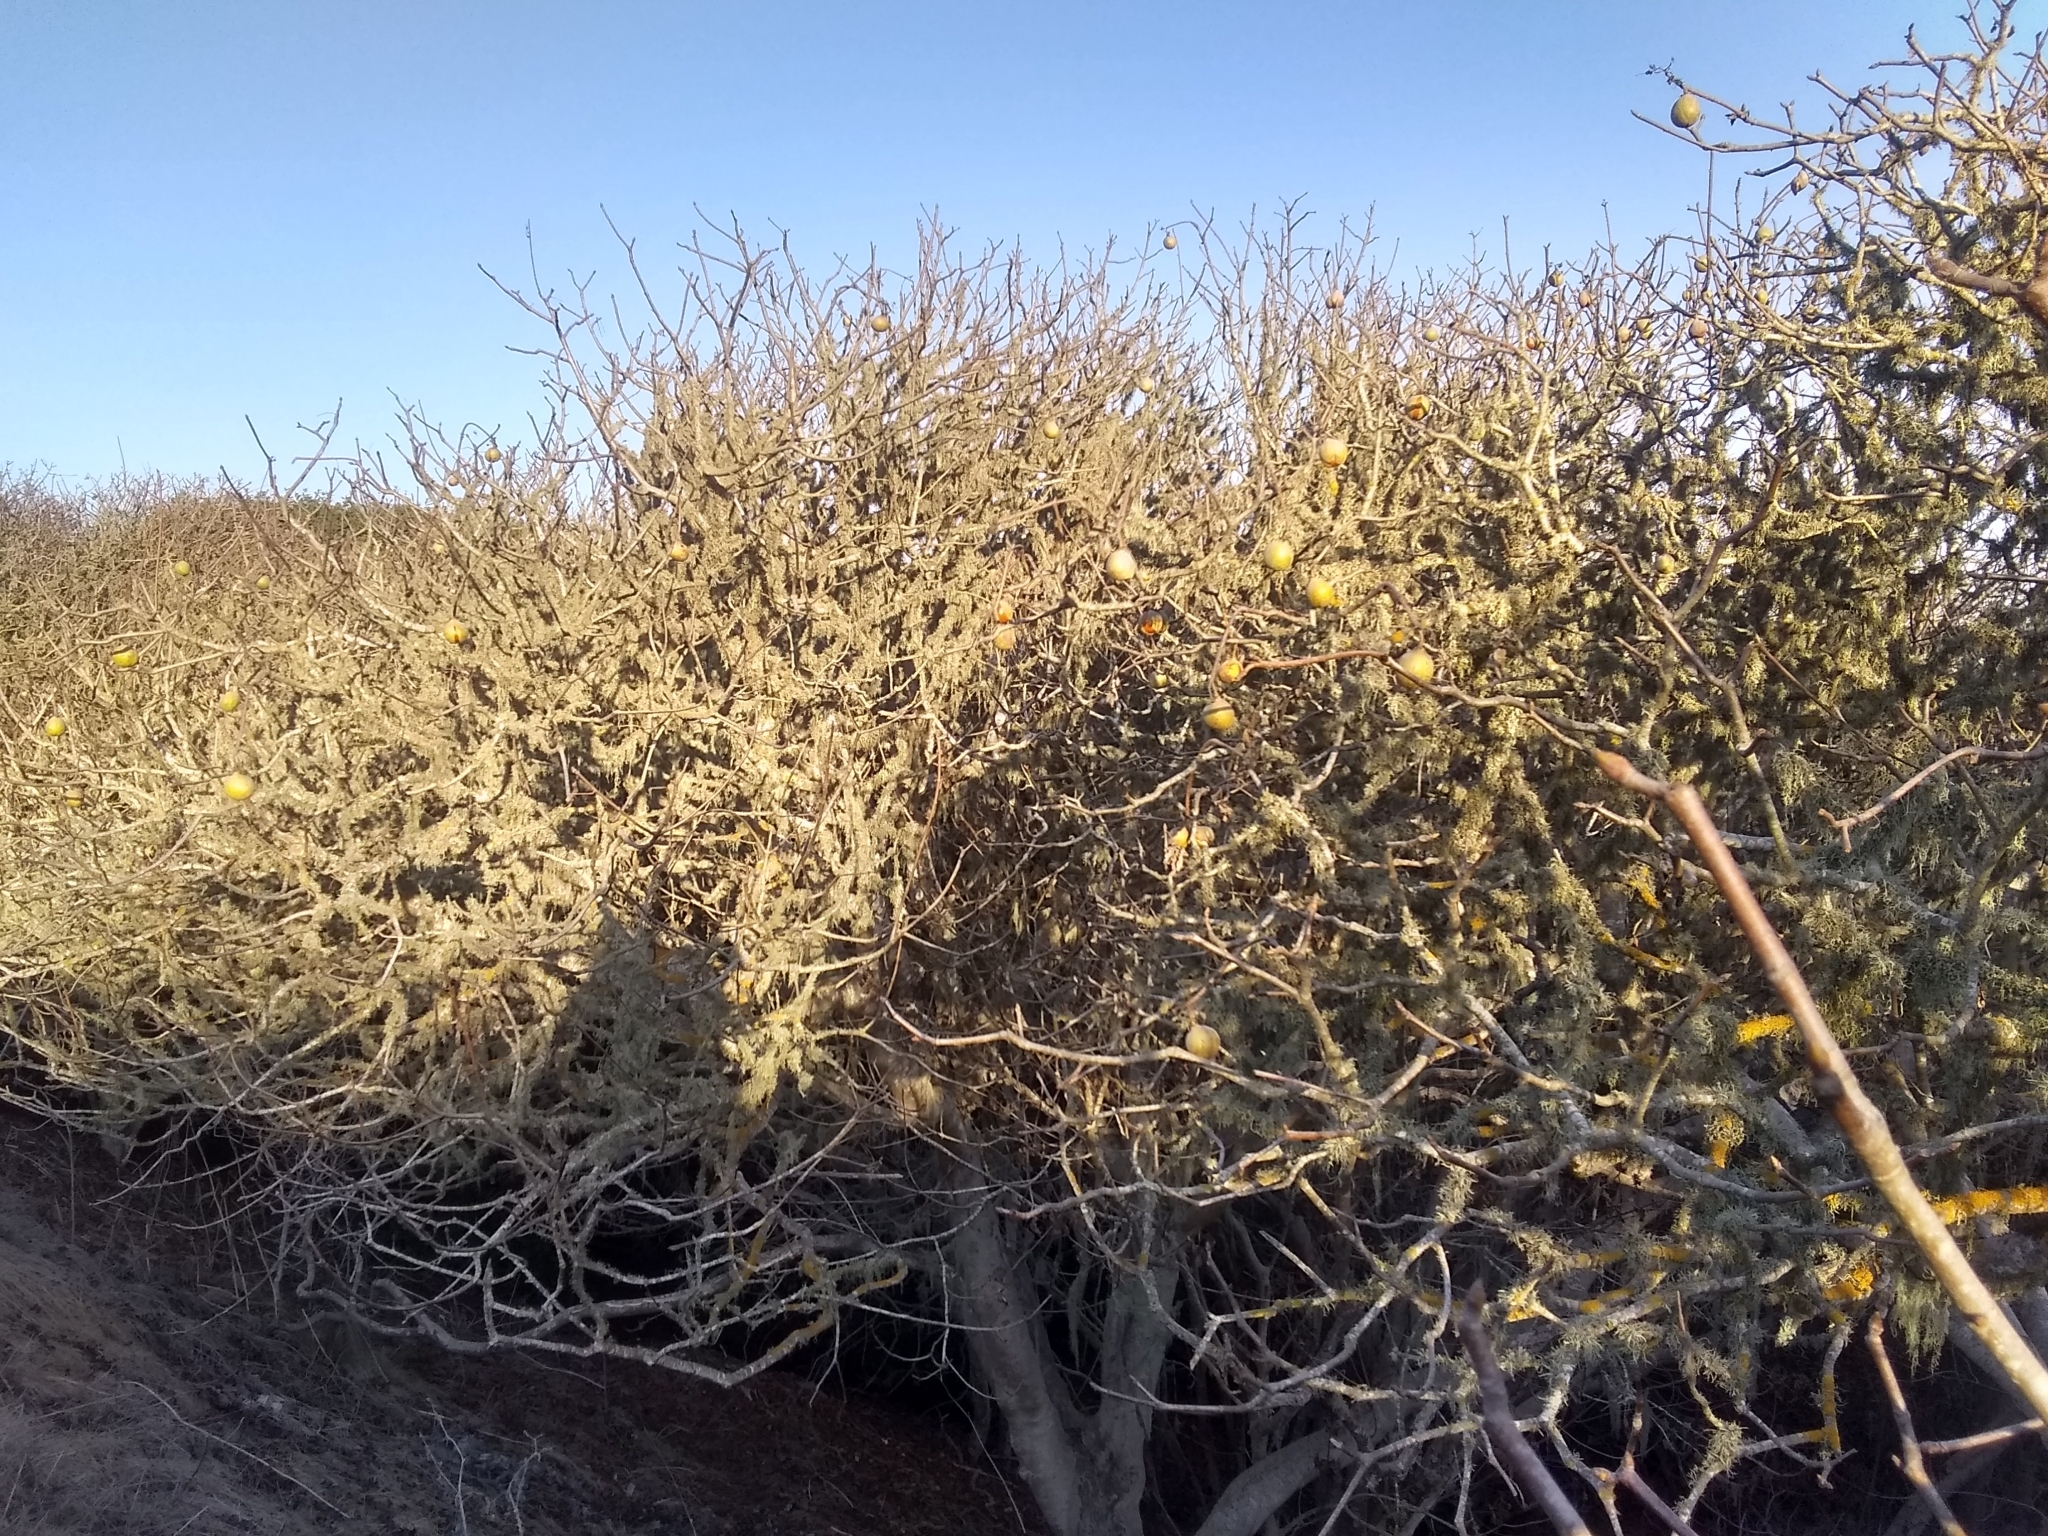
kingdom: Plantae
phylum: Tracheophyta
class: Magnoliopsida
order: Sapindales
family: Sapindaceae
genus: Aesculus
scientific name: Aesculus californica
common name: California buckeye
